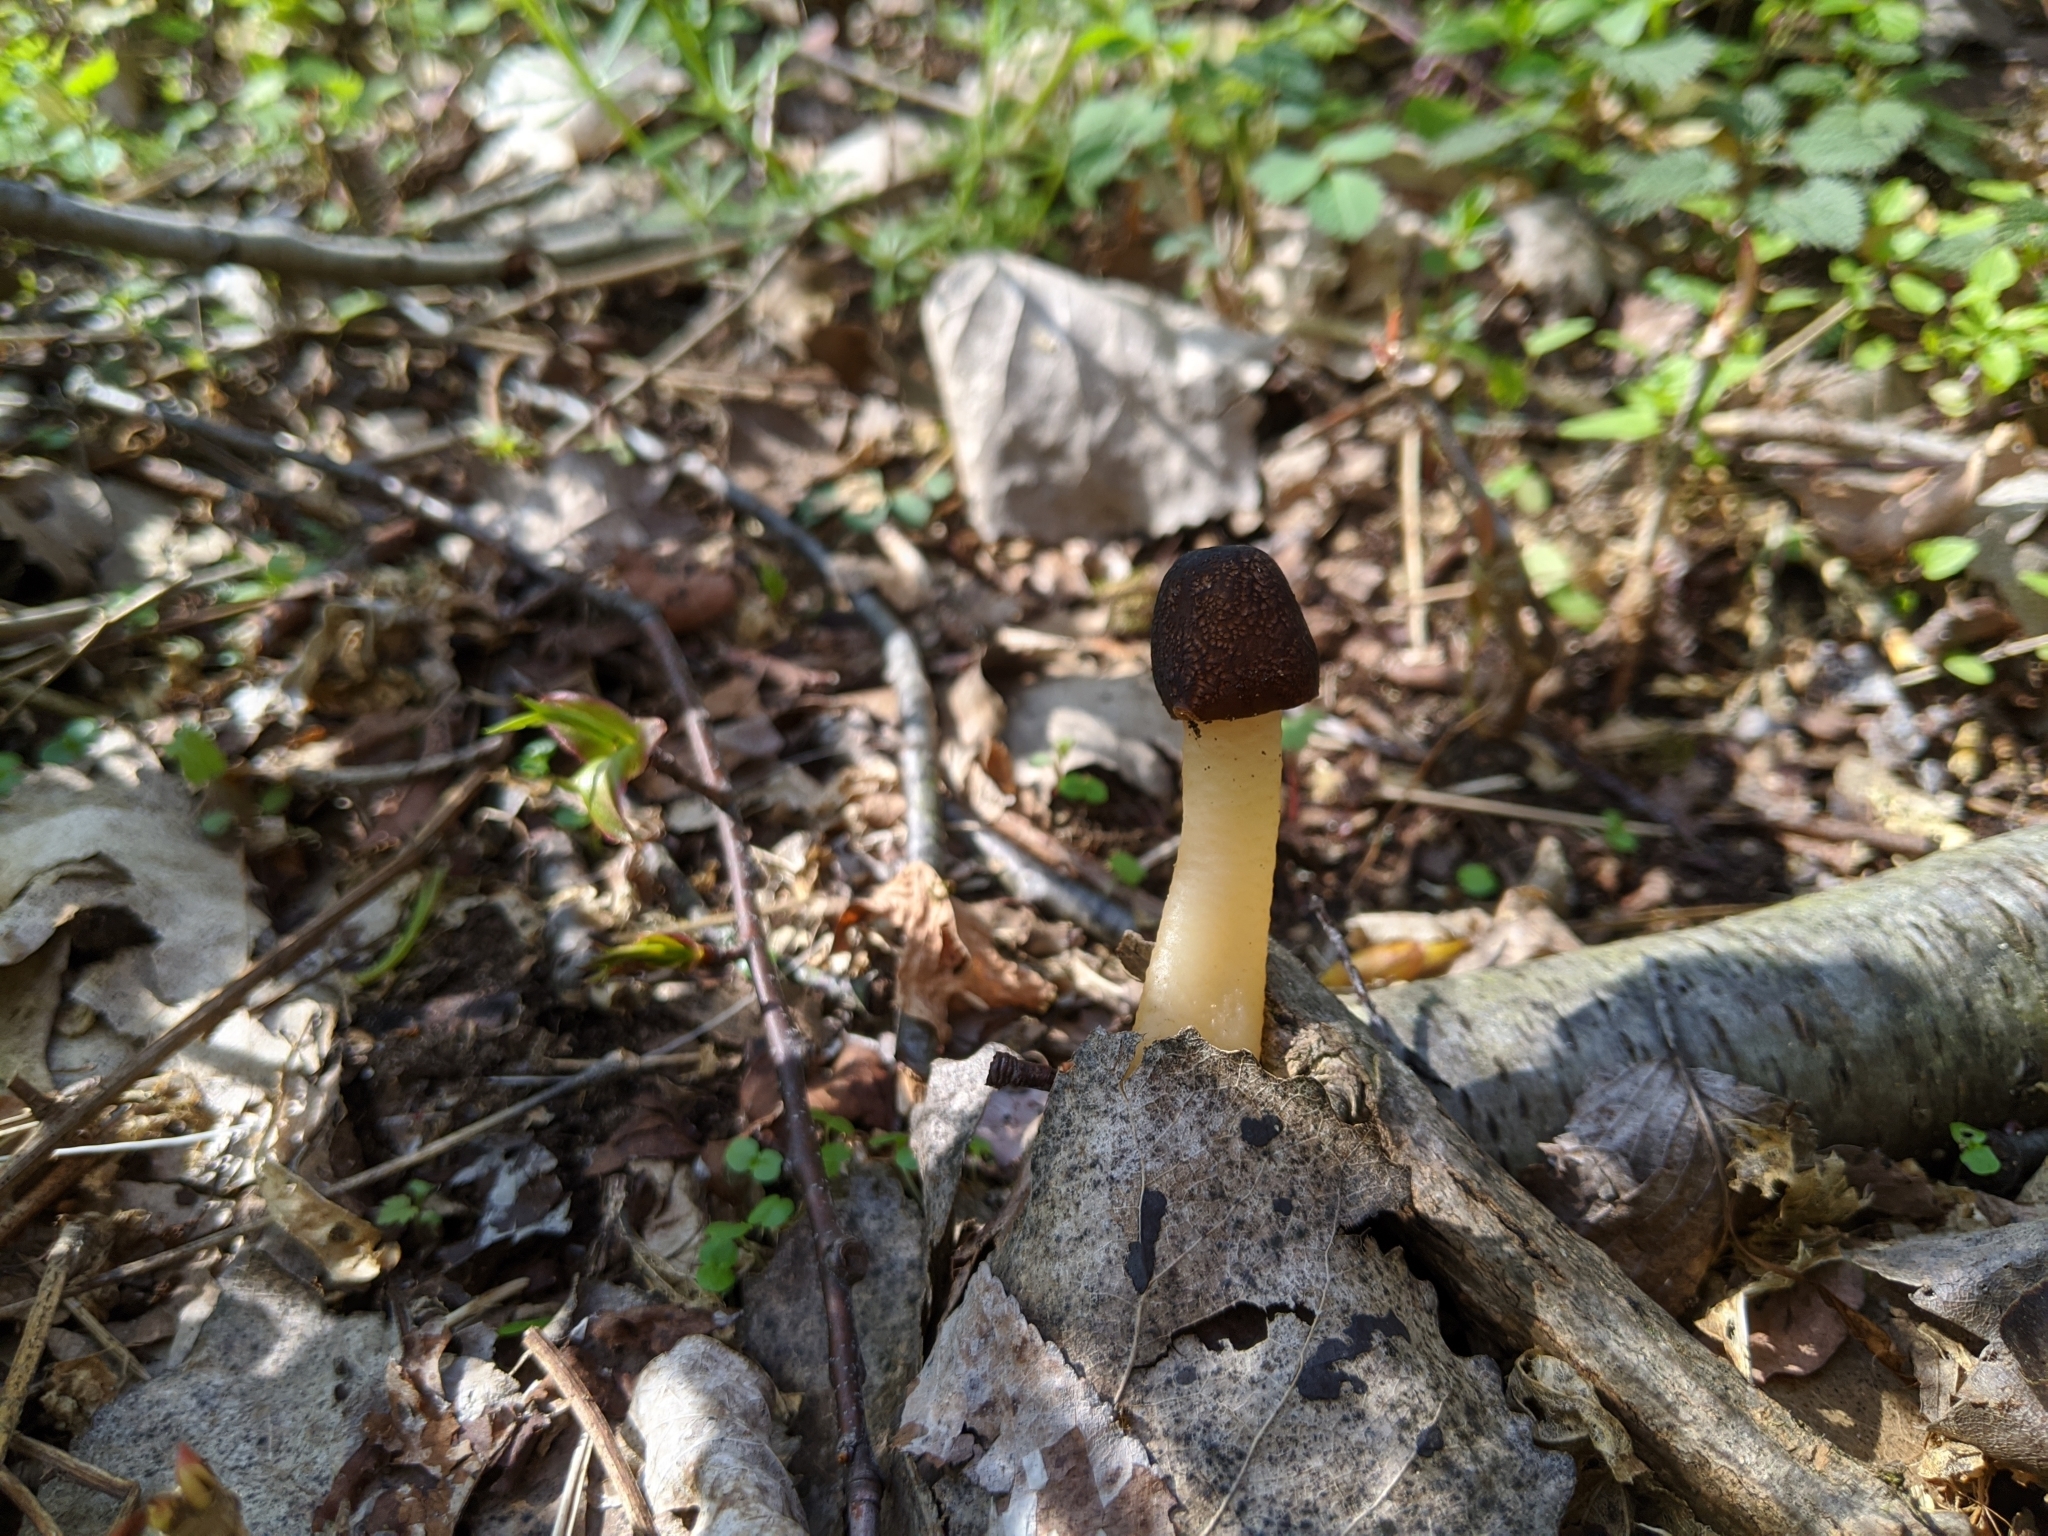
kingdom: Fungi
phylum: Ascomycota
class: Pezizomycetes
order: Pezizales
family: Morchellaceae
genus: Verpa
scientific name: Verpa conica
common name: Thimble morel
